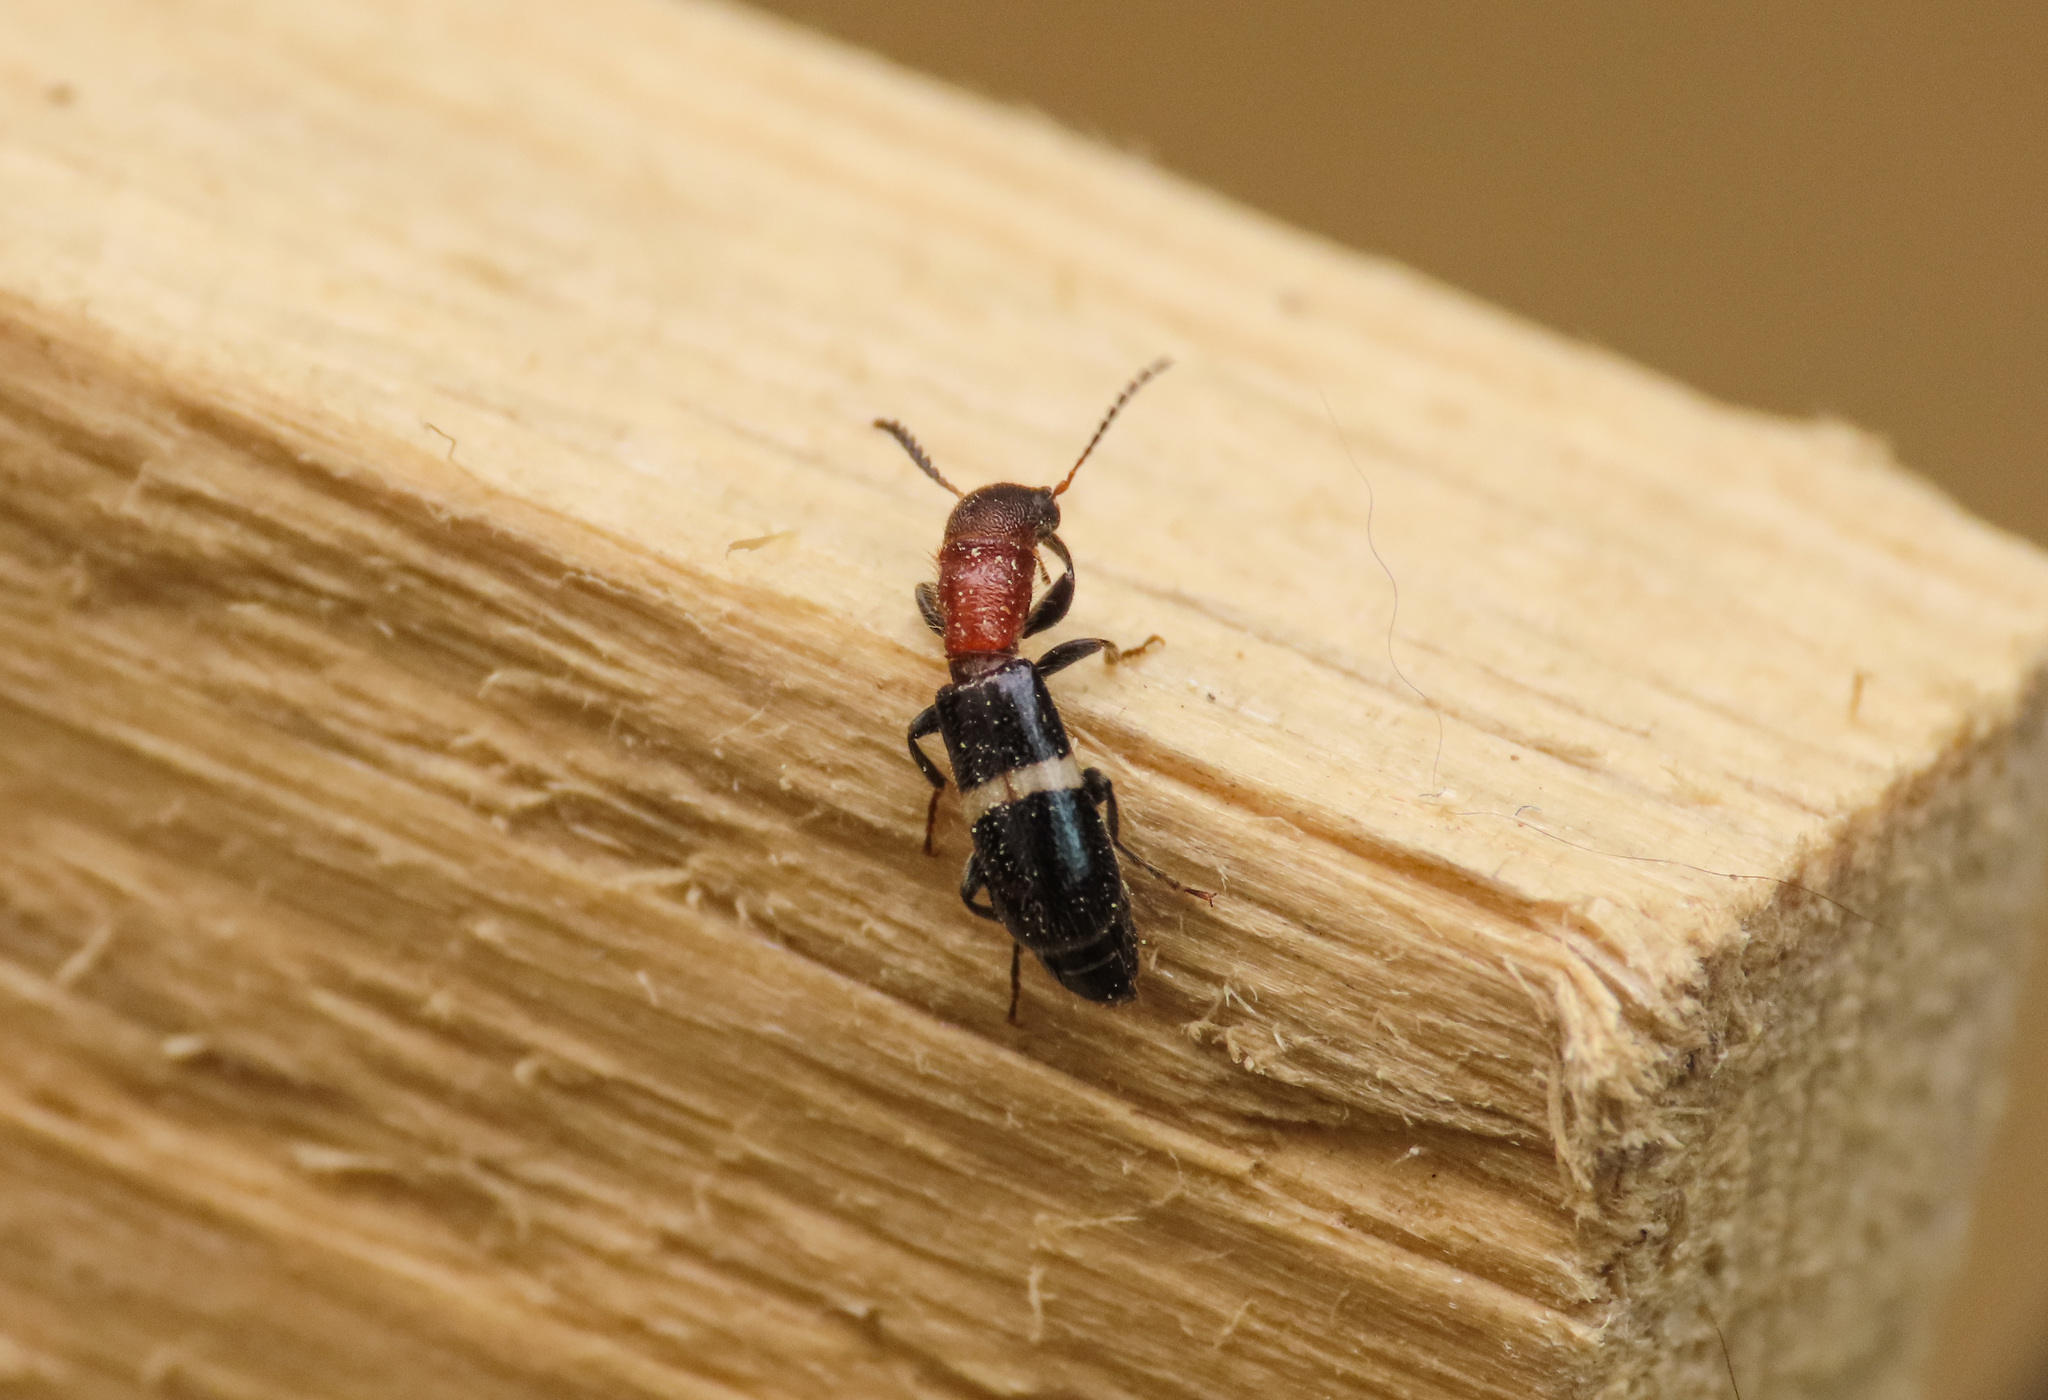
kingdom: Animalia
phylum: Arthropoda
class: Insecta
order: Coleoptera
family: Cleridae
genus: Denops
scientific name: Denops albofasciatus
